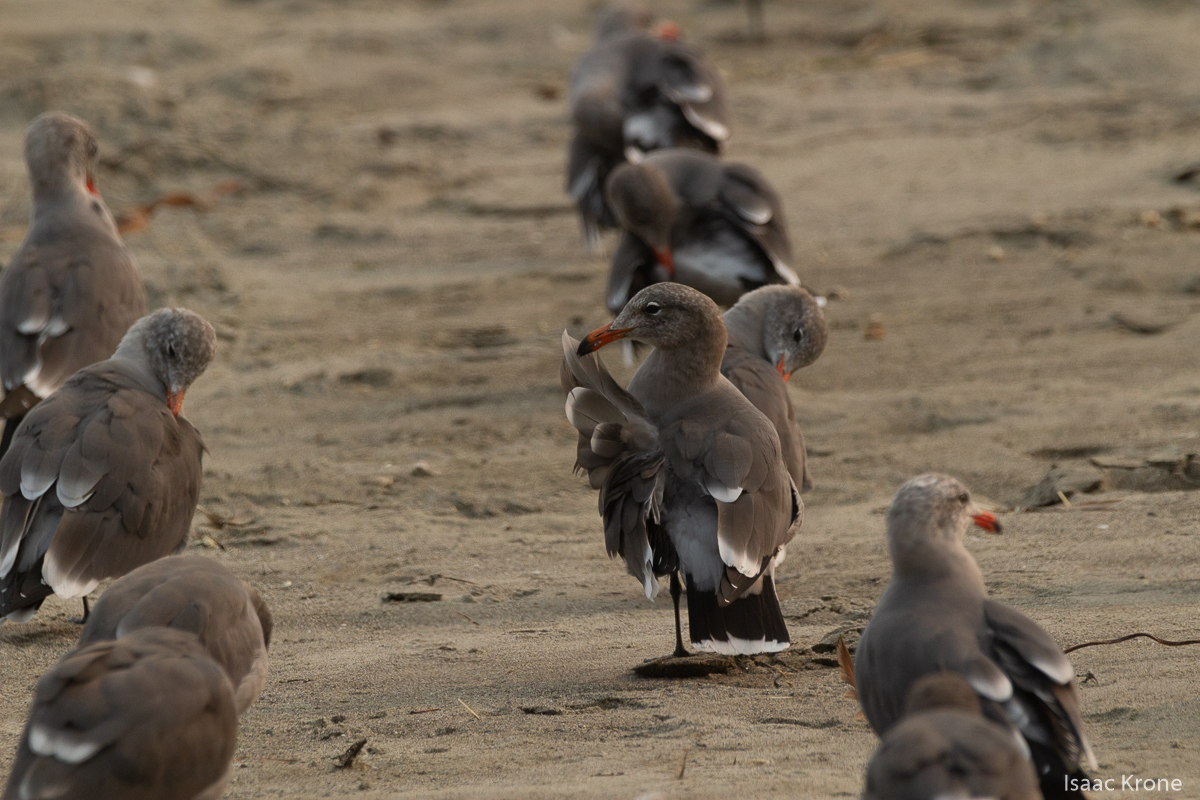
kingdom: Animalia
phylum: Chordata
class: Aves
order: Charadriiformes
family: Laridae
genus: Larus
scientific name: Larus heermanni
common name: Heermann's gull
